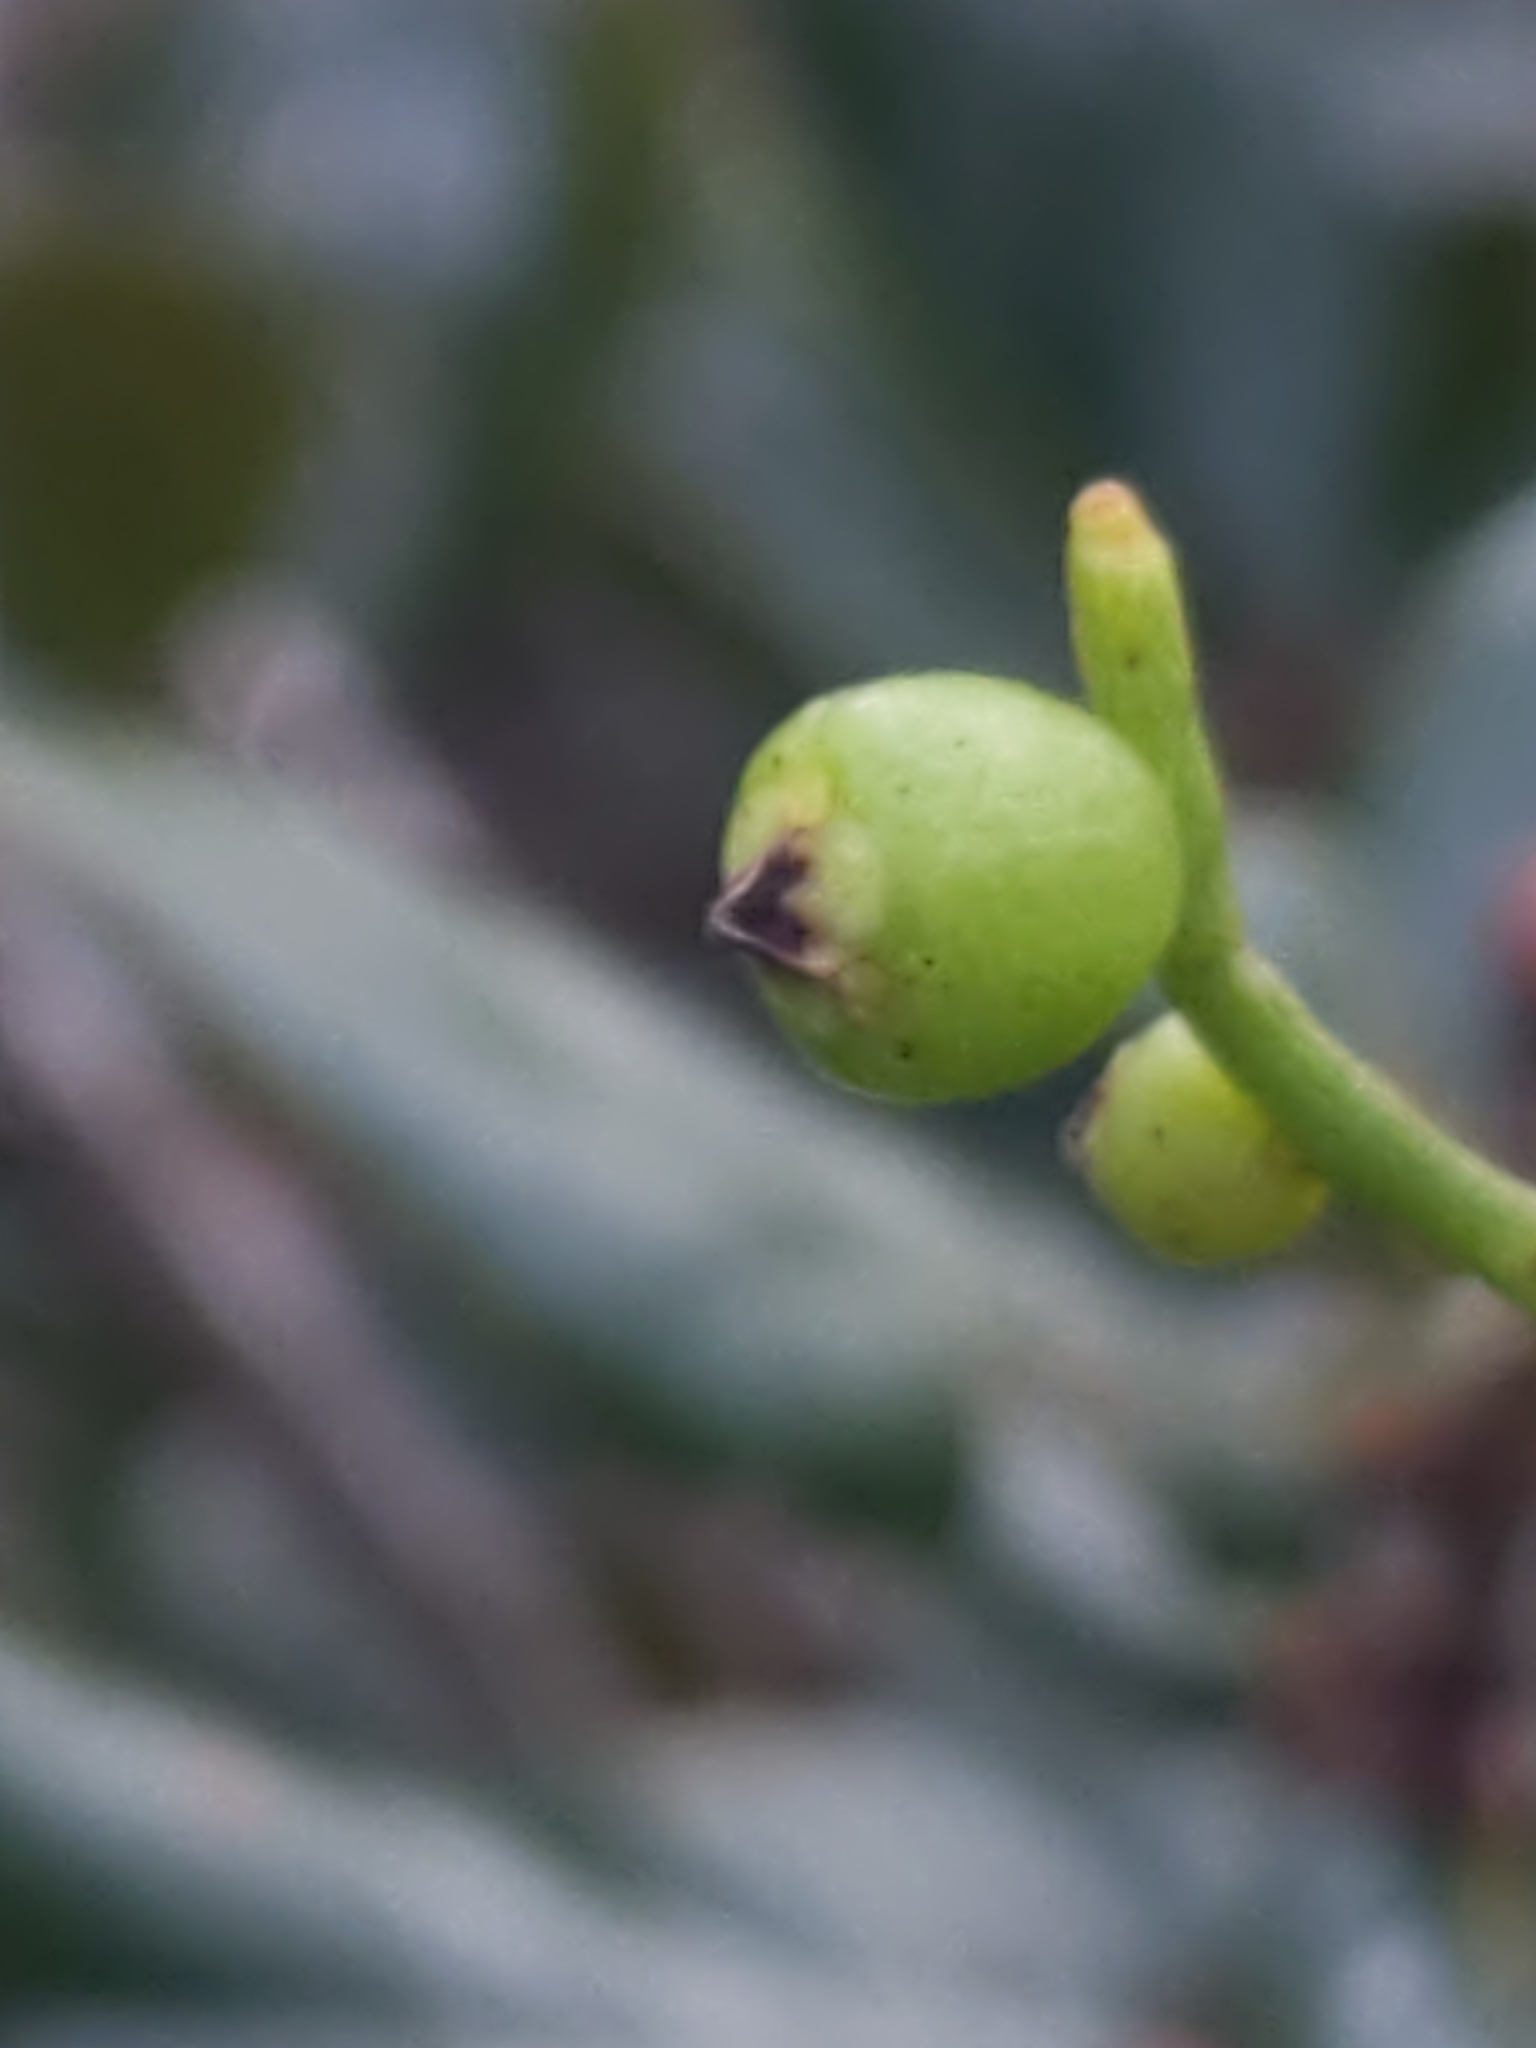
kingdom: Plantae
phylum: Tracheophyta
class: Magnoliopsida
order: Laurales
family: Lauraceae
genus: Cassytha
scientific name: Cassytha filiformis
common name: Dodder-laurel
